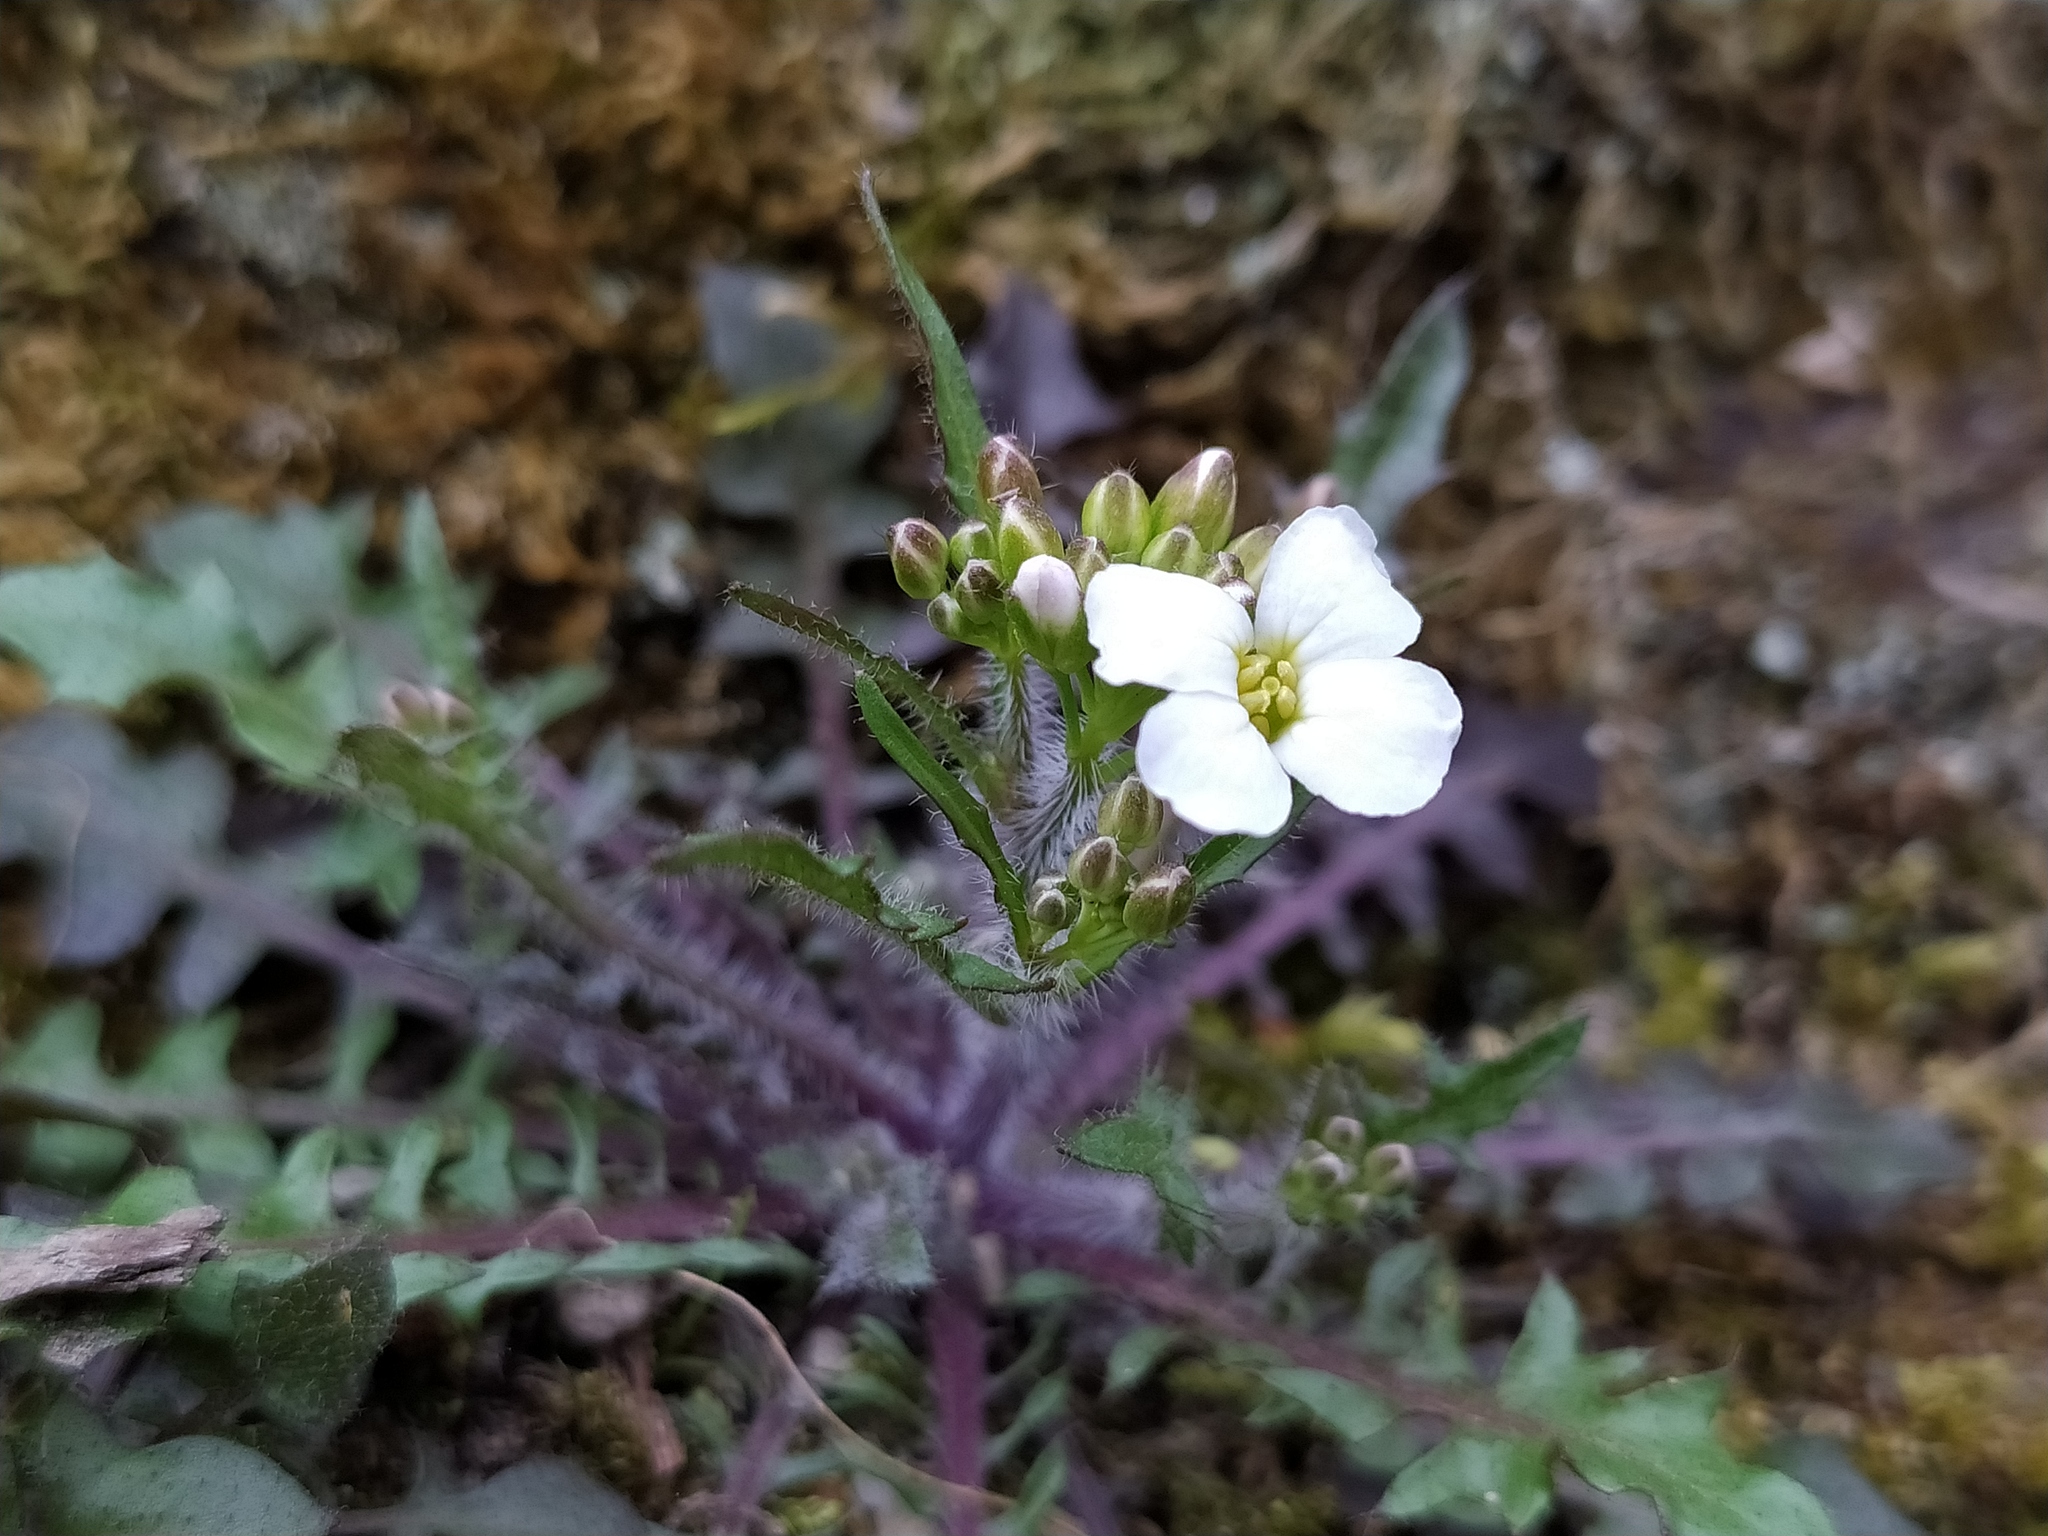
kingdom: Plantae
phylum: Tracheophyta
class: Magnoliopsida
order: Brassicales
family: Brassicaceae
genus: Arabidopsis
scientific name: Arabidopsis arenosa
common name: Sand rock-cress
